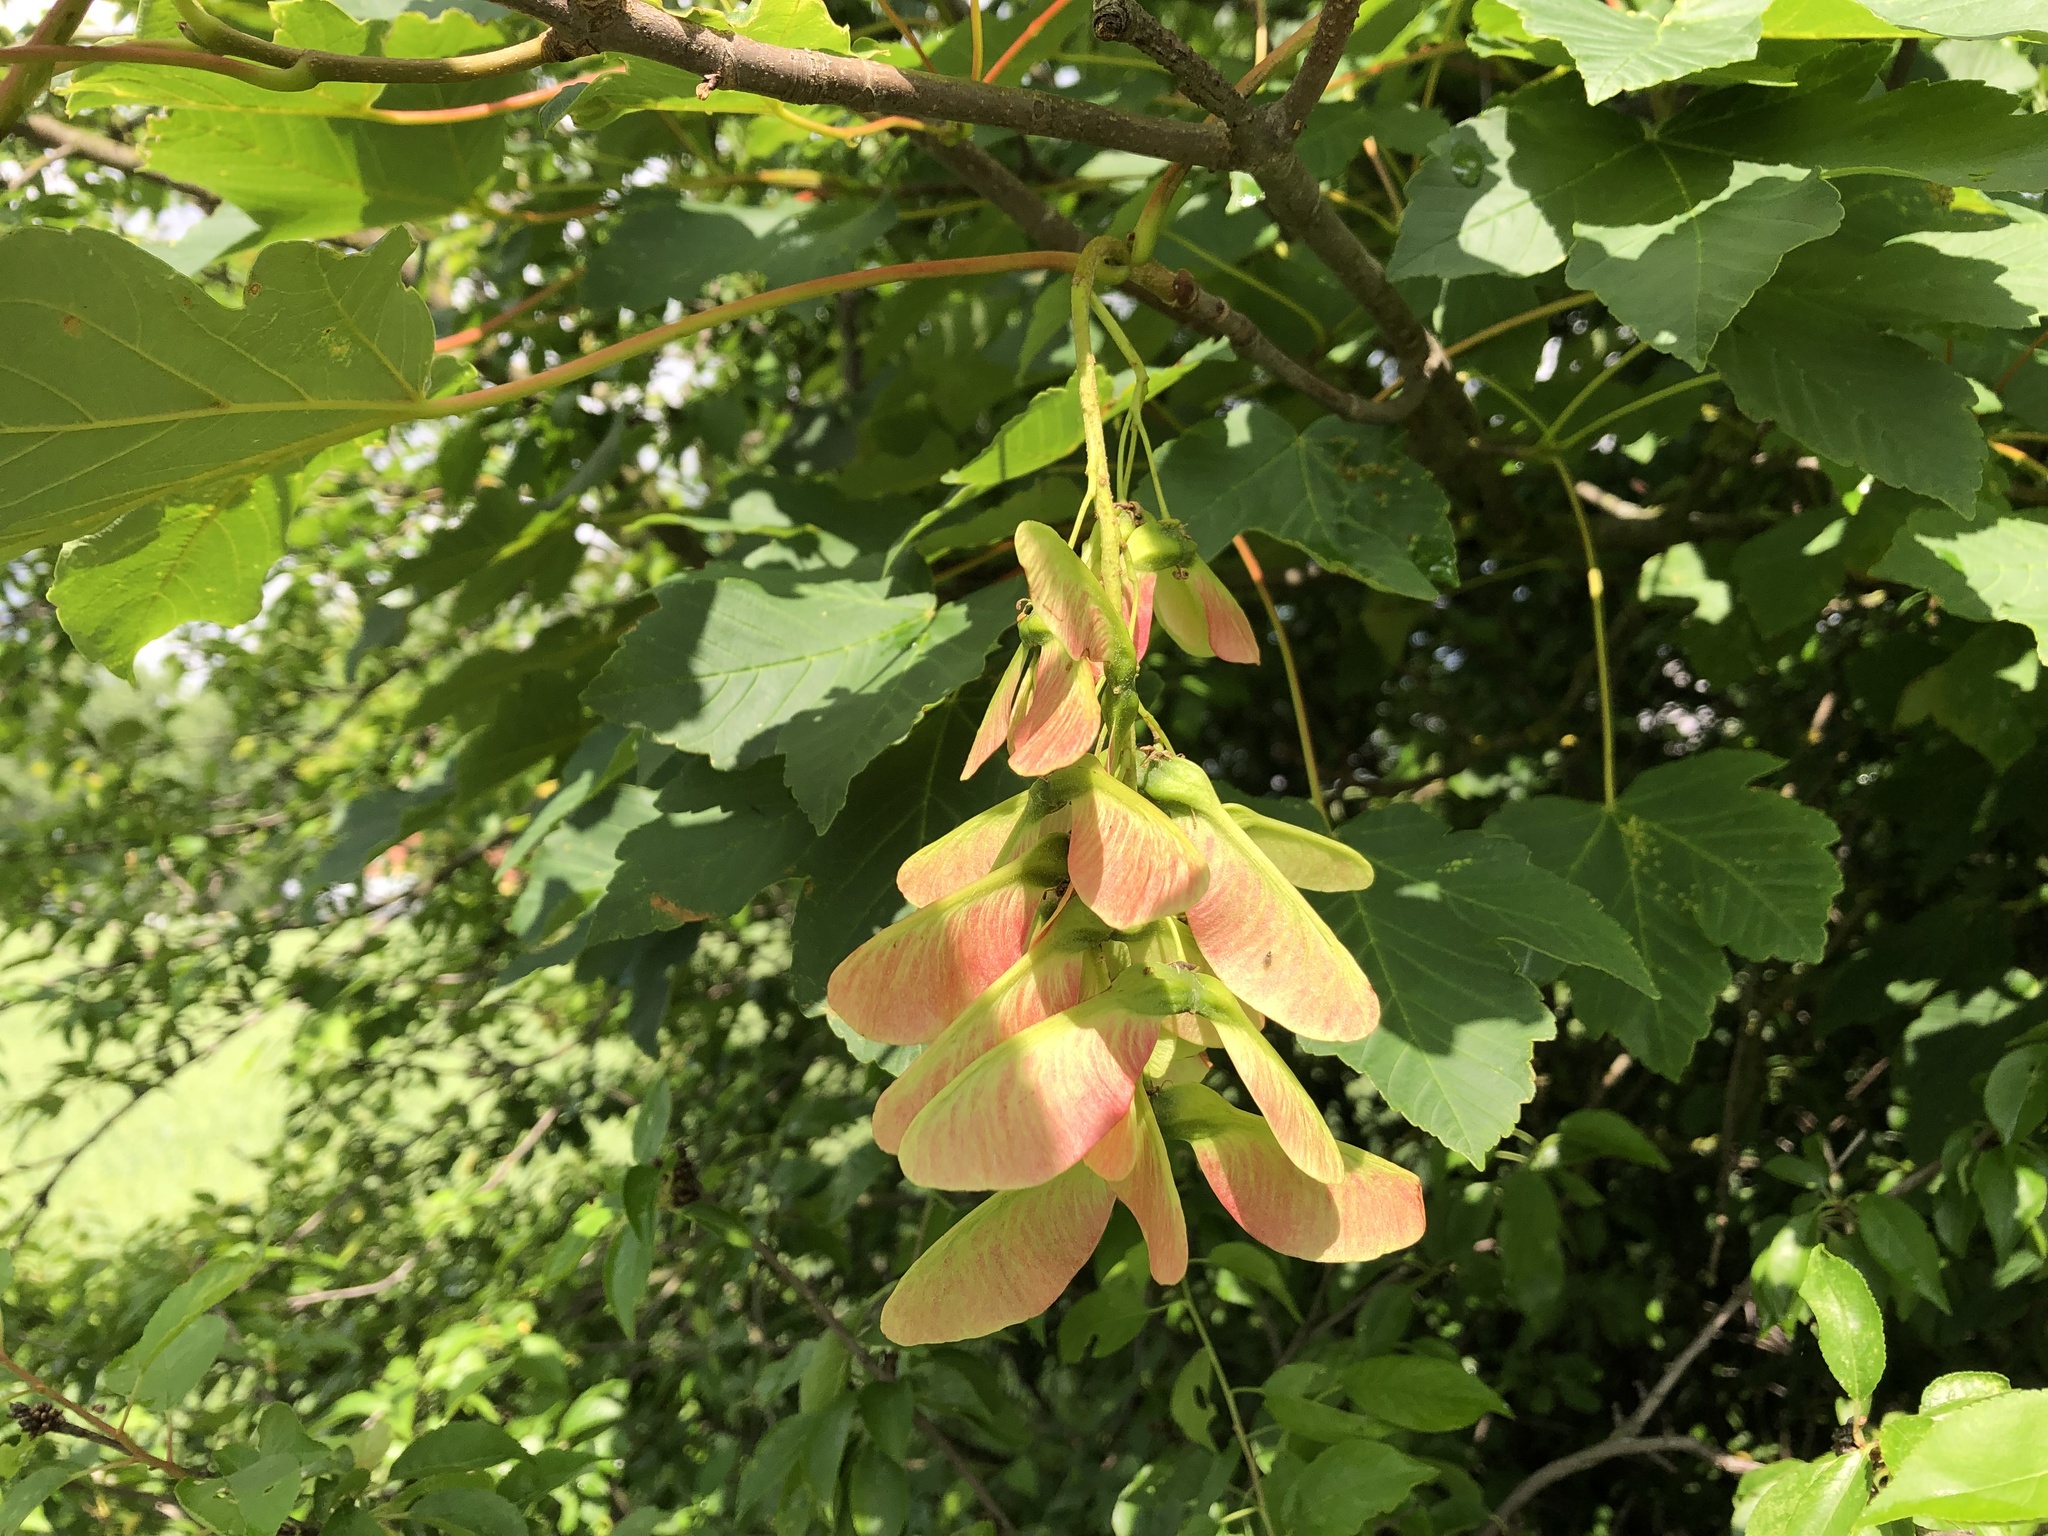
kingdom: Plantae
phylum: Tracheophyta
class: Magnoliopsida
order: Sapindales
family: Sapindaceae
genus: Acer
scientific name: Acer pseudoplatanus
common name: Sycamore
